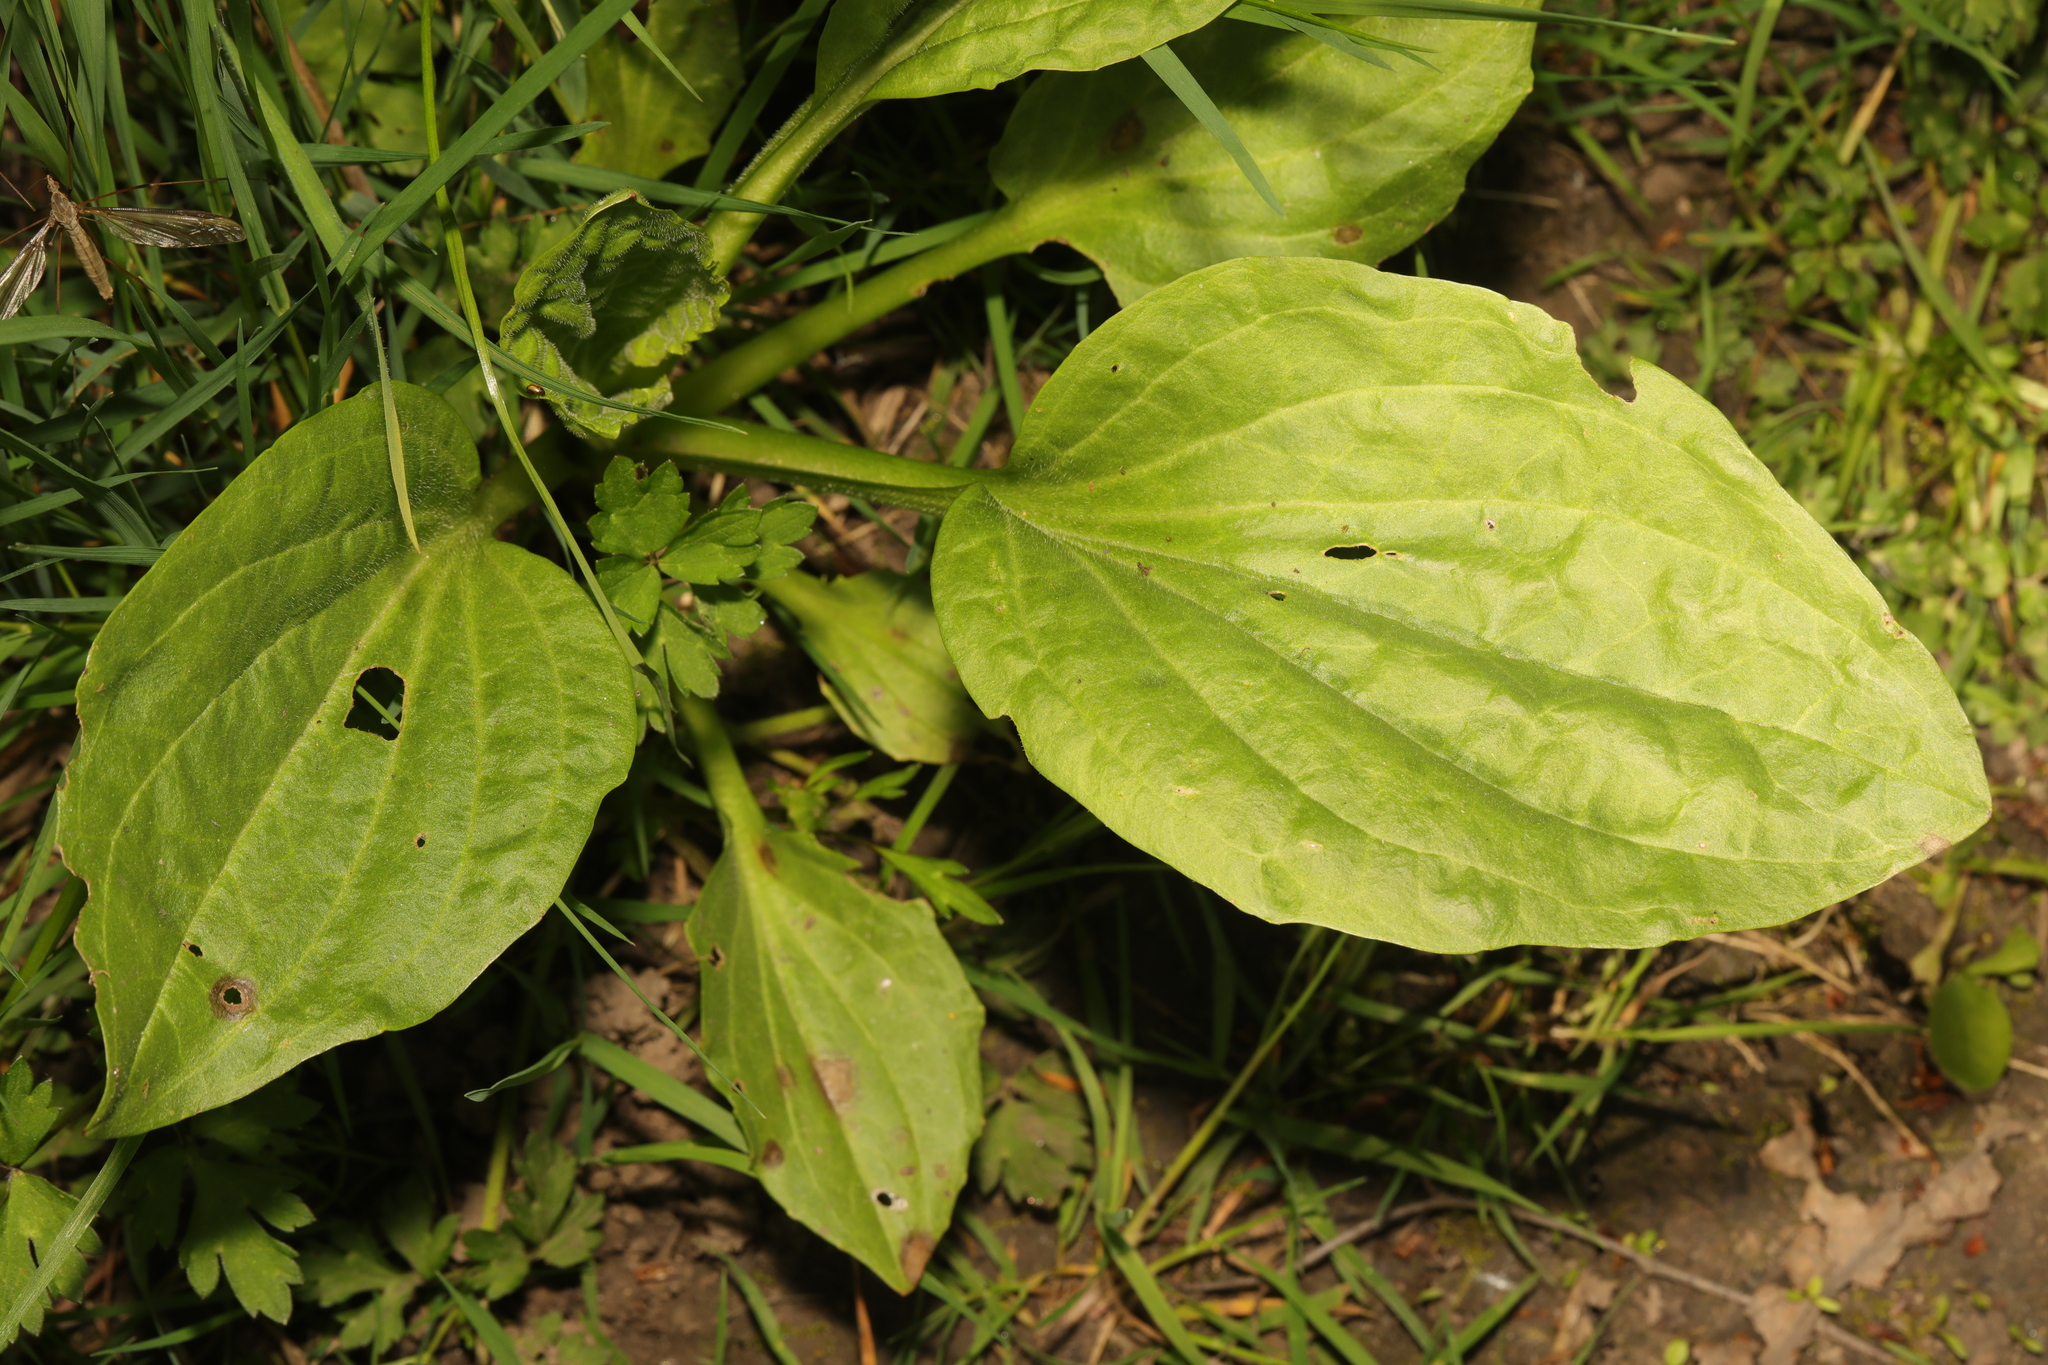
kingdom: Plantae
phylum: Tracheophyta
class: Magnoliopsida
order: Lamiales
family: Plantaginaceae
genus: Plantago
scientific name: Plantago major
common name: Common plantain
